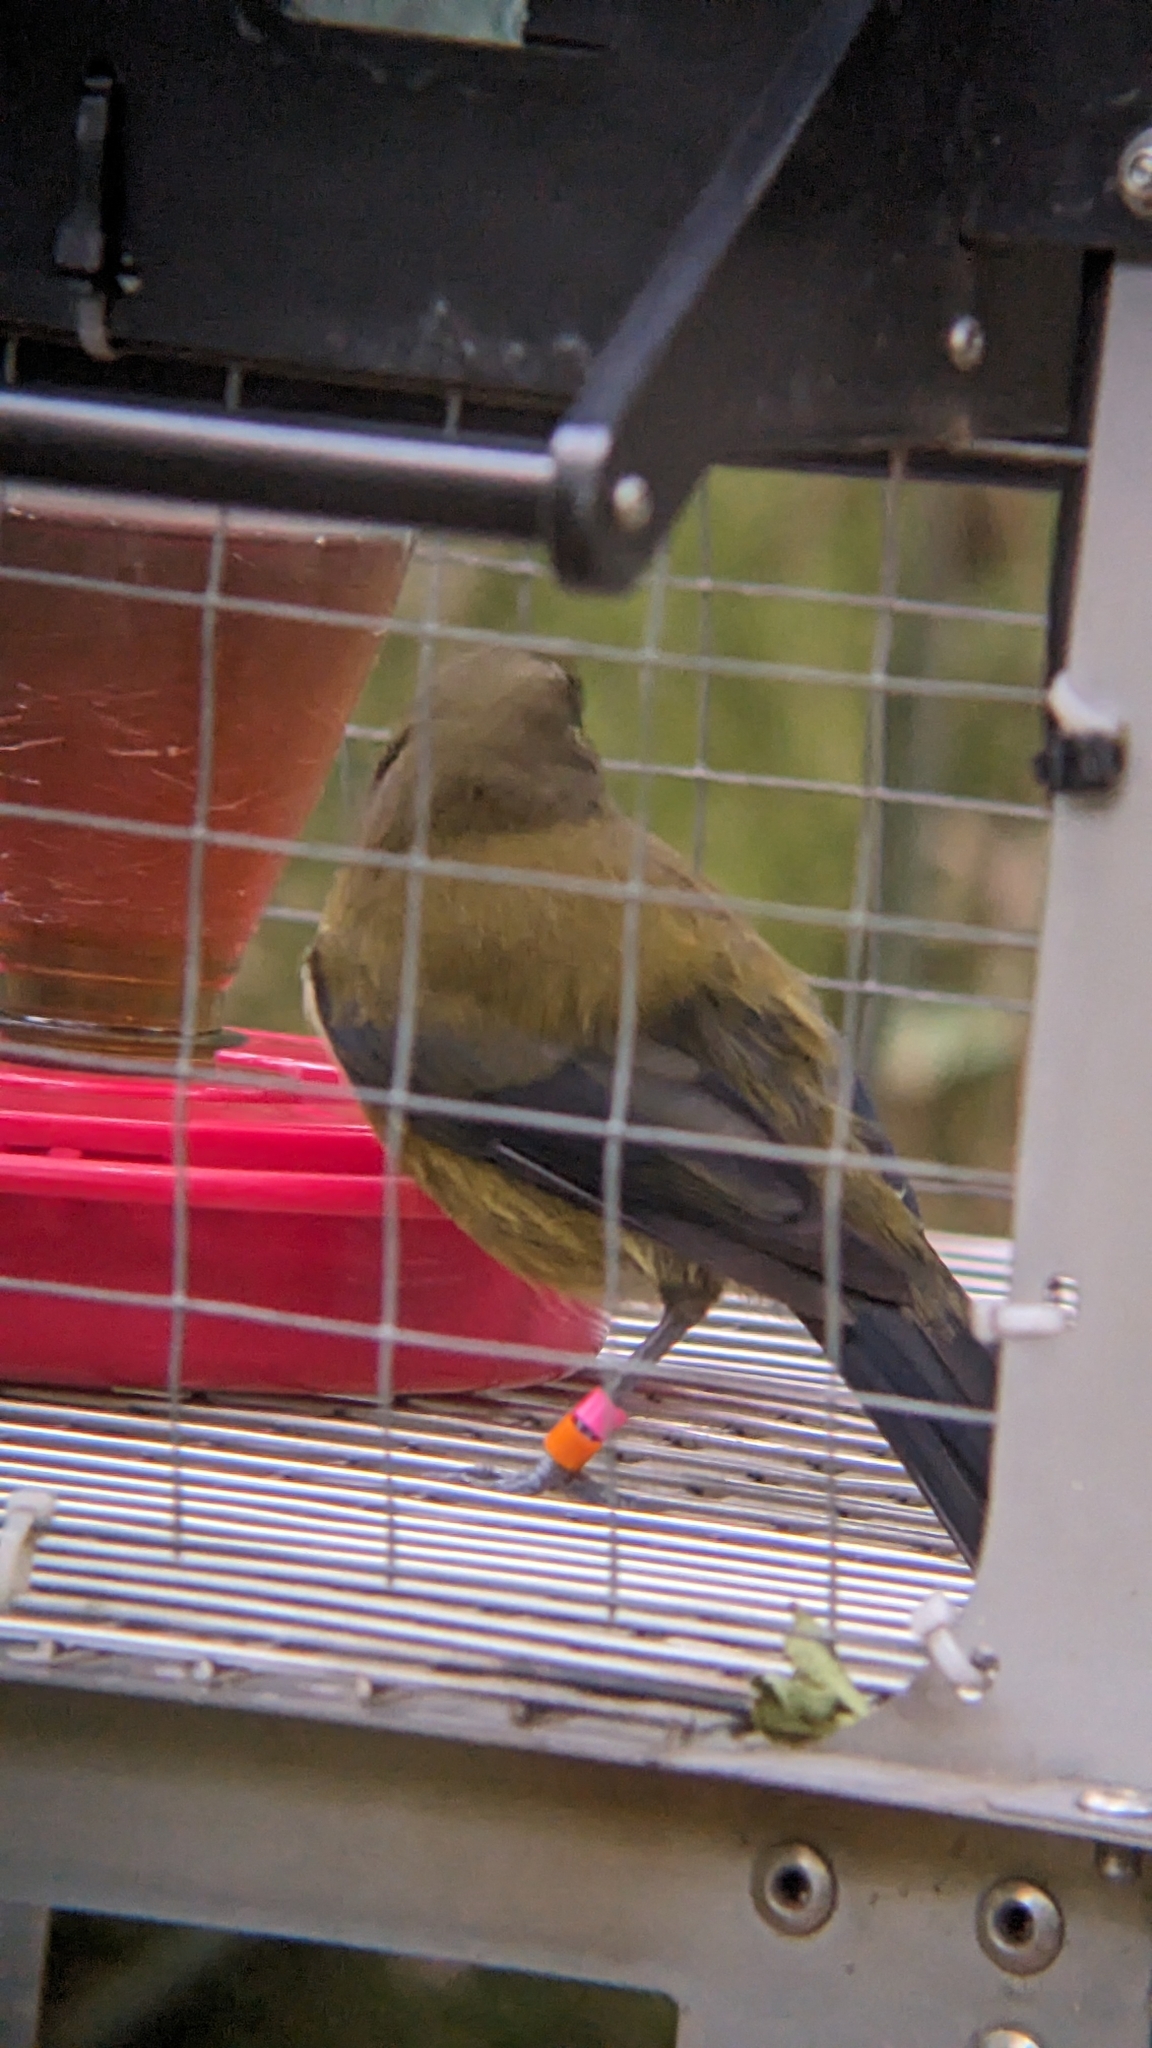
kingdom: Animalia
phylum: Chordata
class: Aves
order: Passeriformes
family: Meliphagidae
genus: Anthornis
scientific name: Anthornis melanura
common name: New zealand bellbird
